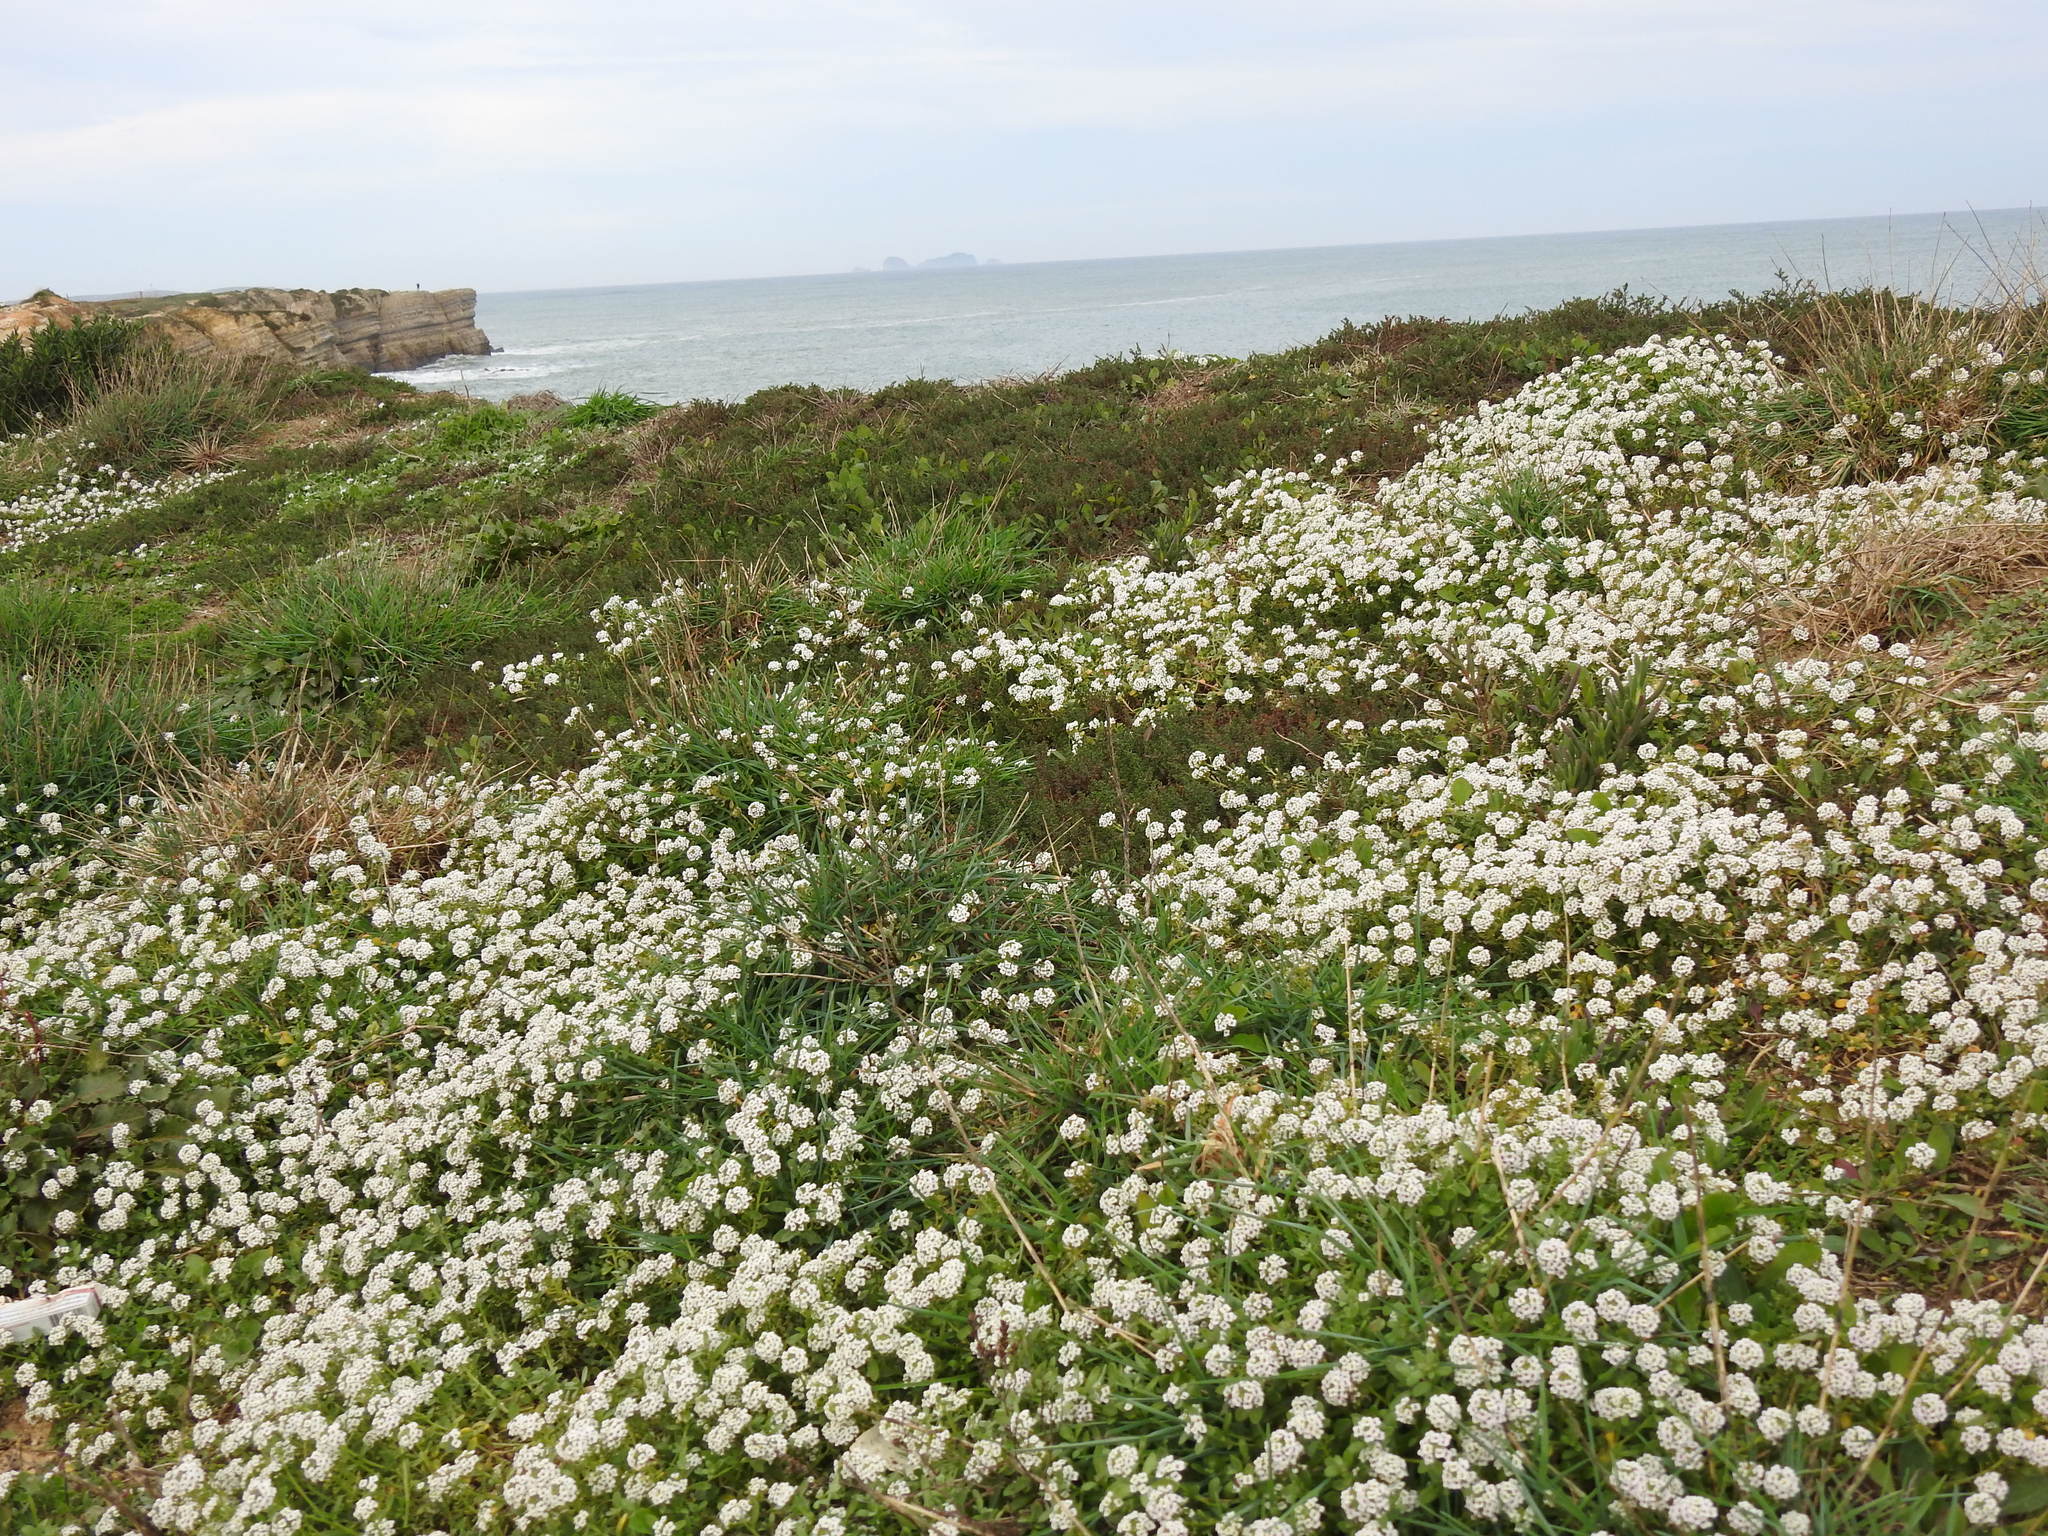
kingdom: Plantae
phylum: Tracheophyta
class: Magnoliopsida
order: Brassicales
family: Brassicaceae
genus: Lobularia
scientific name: Lobularia maritima
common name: Sweet alison
